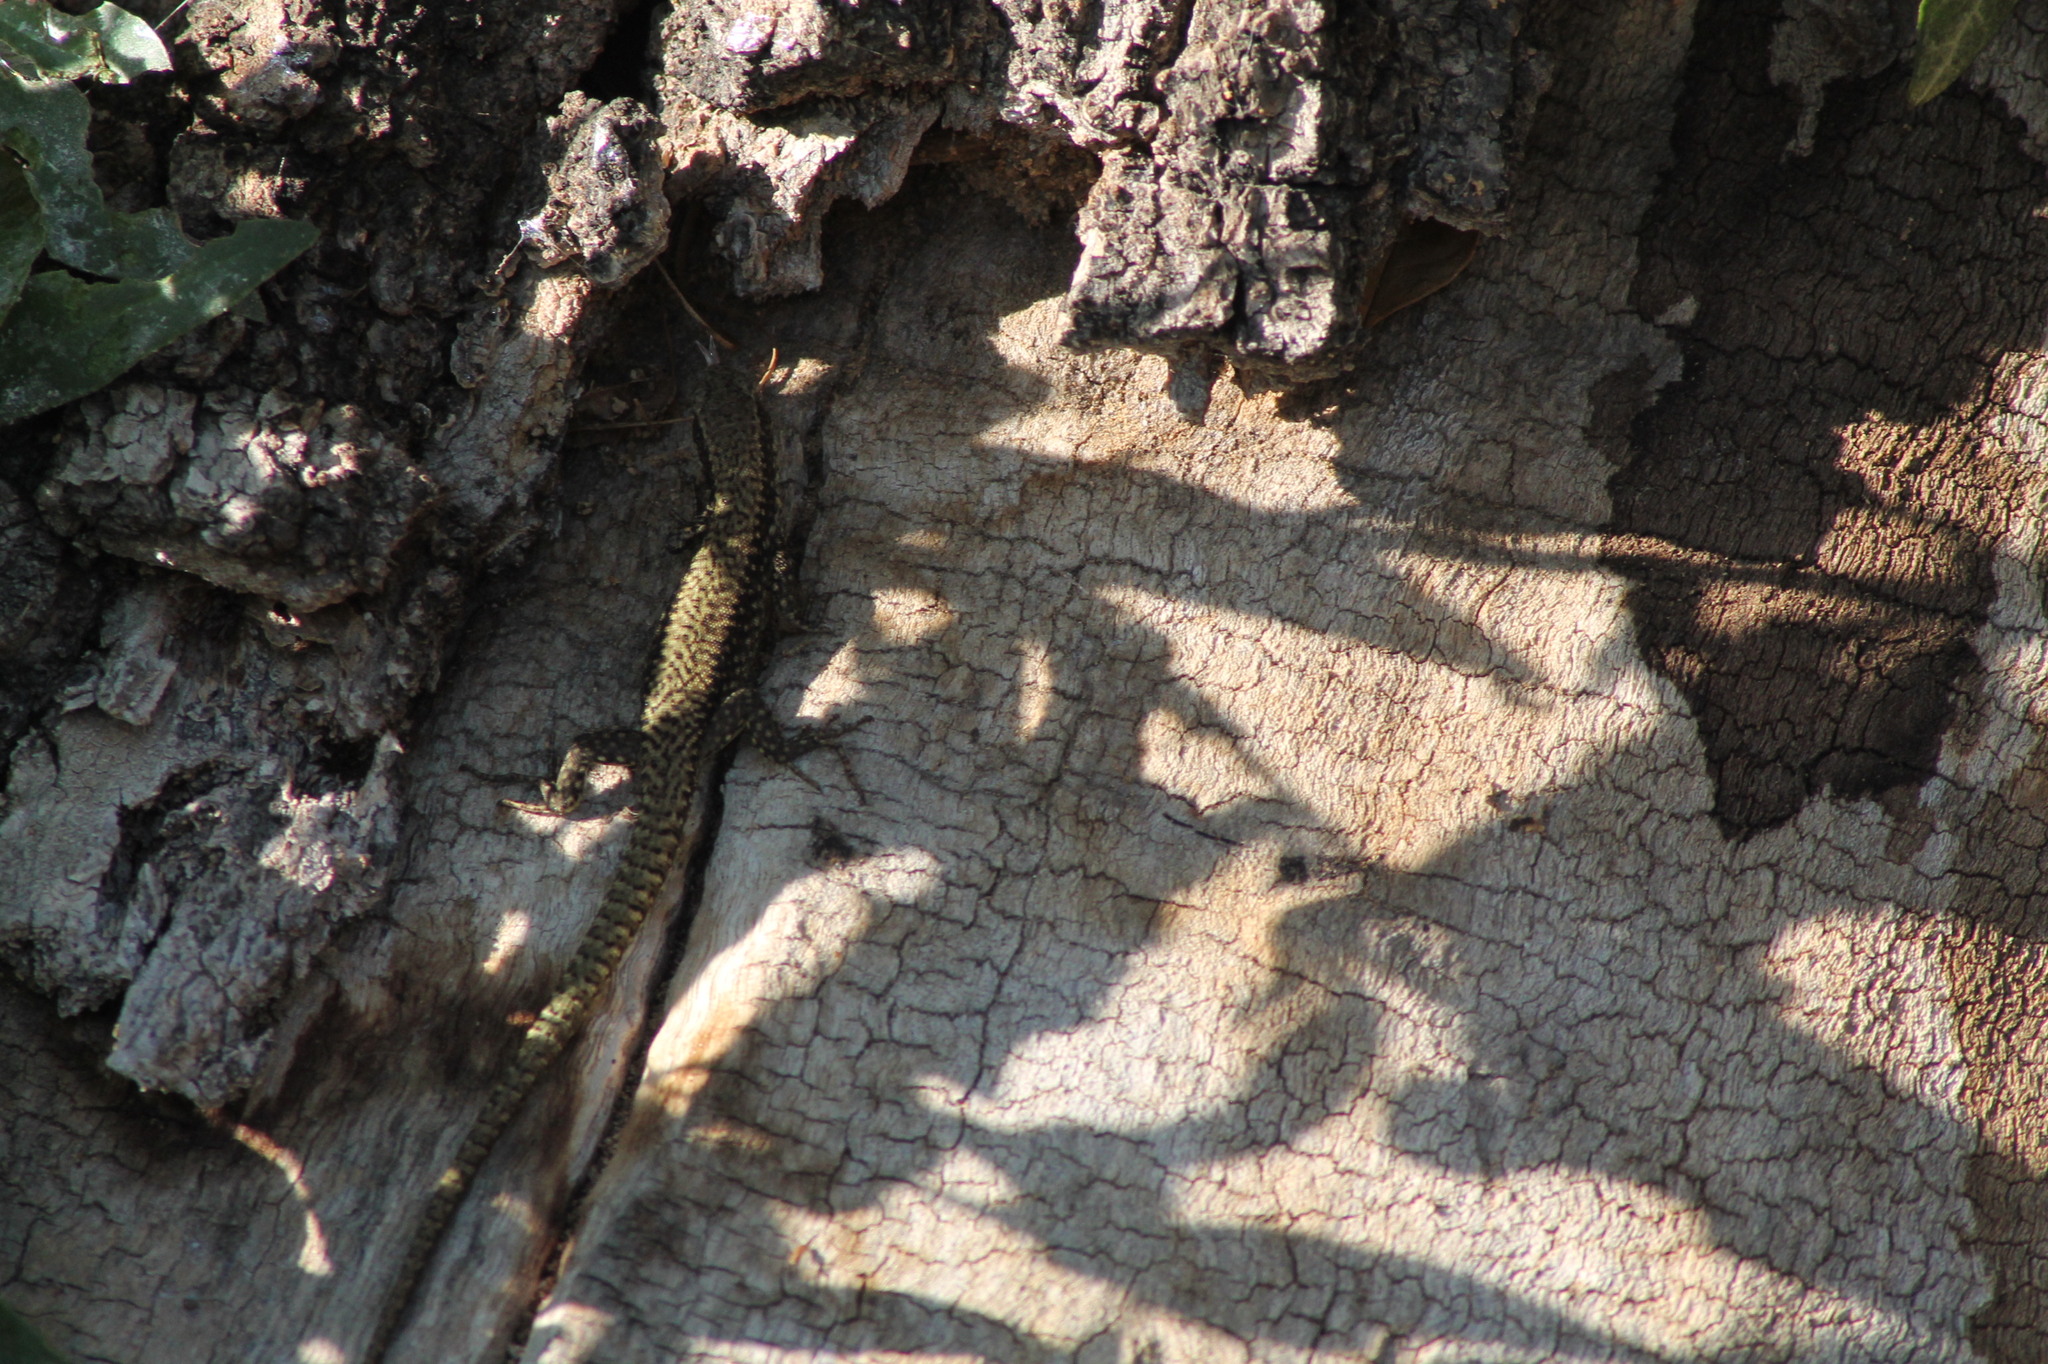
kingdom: Animalia
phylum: Chordata
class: Squamata
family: Lacertidae
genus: Podarcis
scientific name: Podarcis muralis
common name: Common wall lizard
